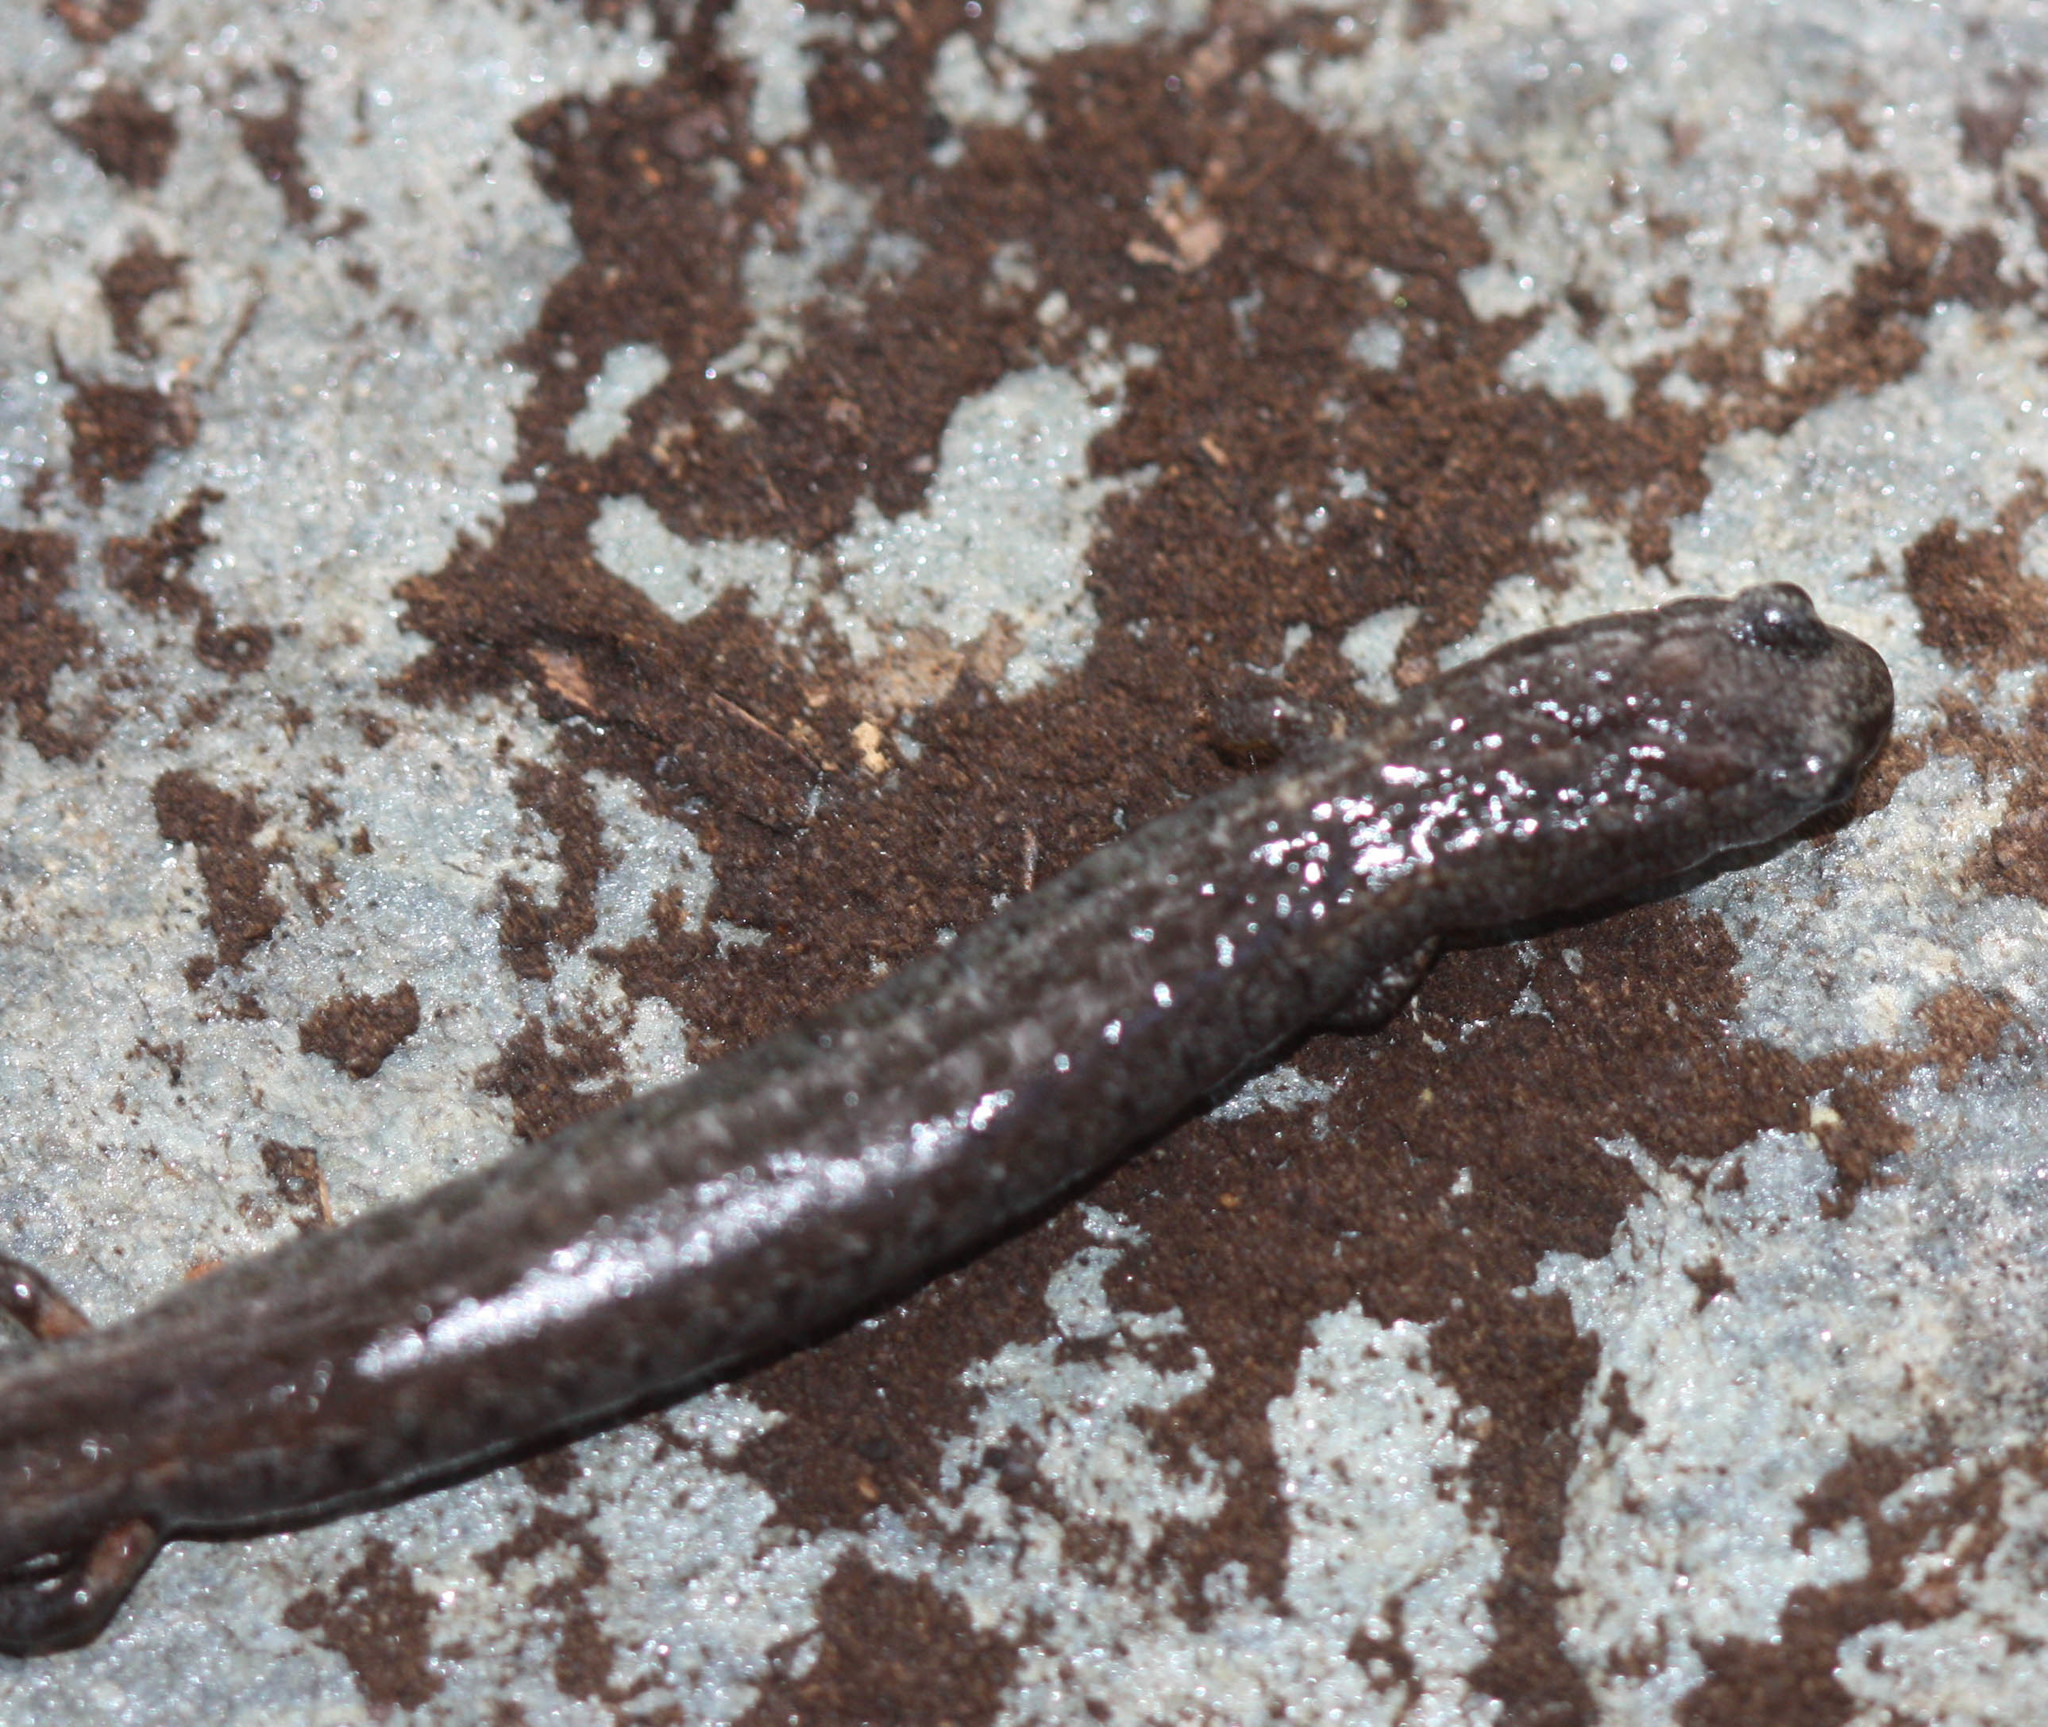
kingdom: Animalia
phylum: Chordata
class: Amphibia
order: Caudata
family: Plethodontidae
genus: Batrachoseps
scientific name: Batrachoseps attenuatus
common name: California slender salamander
